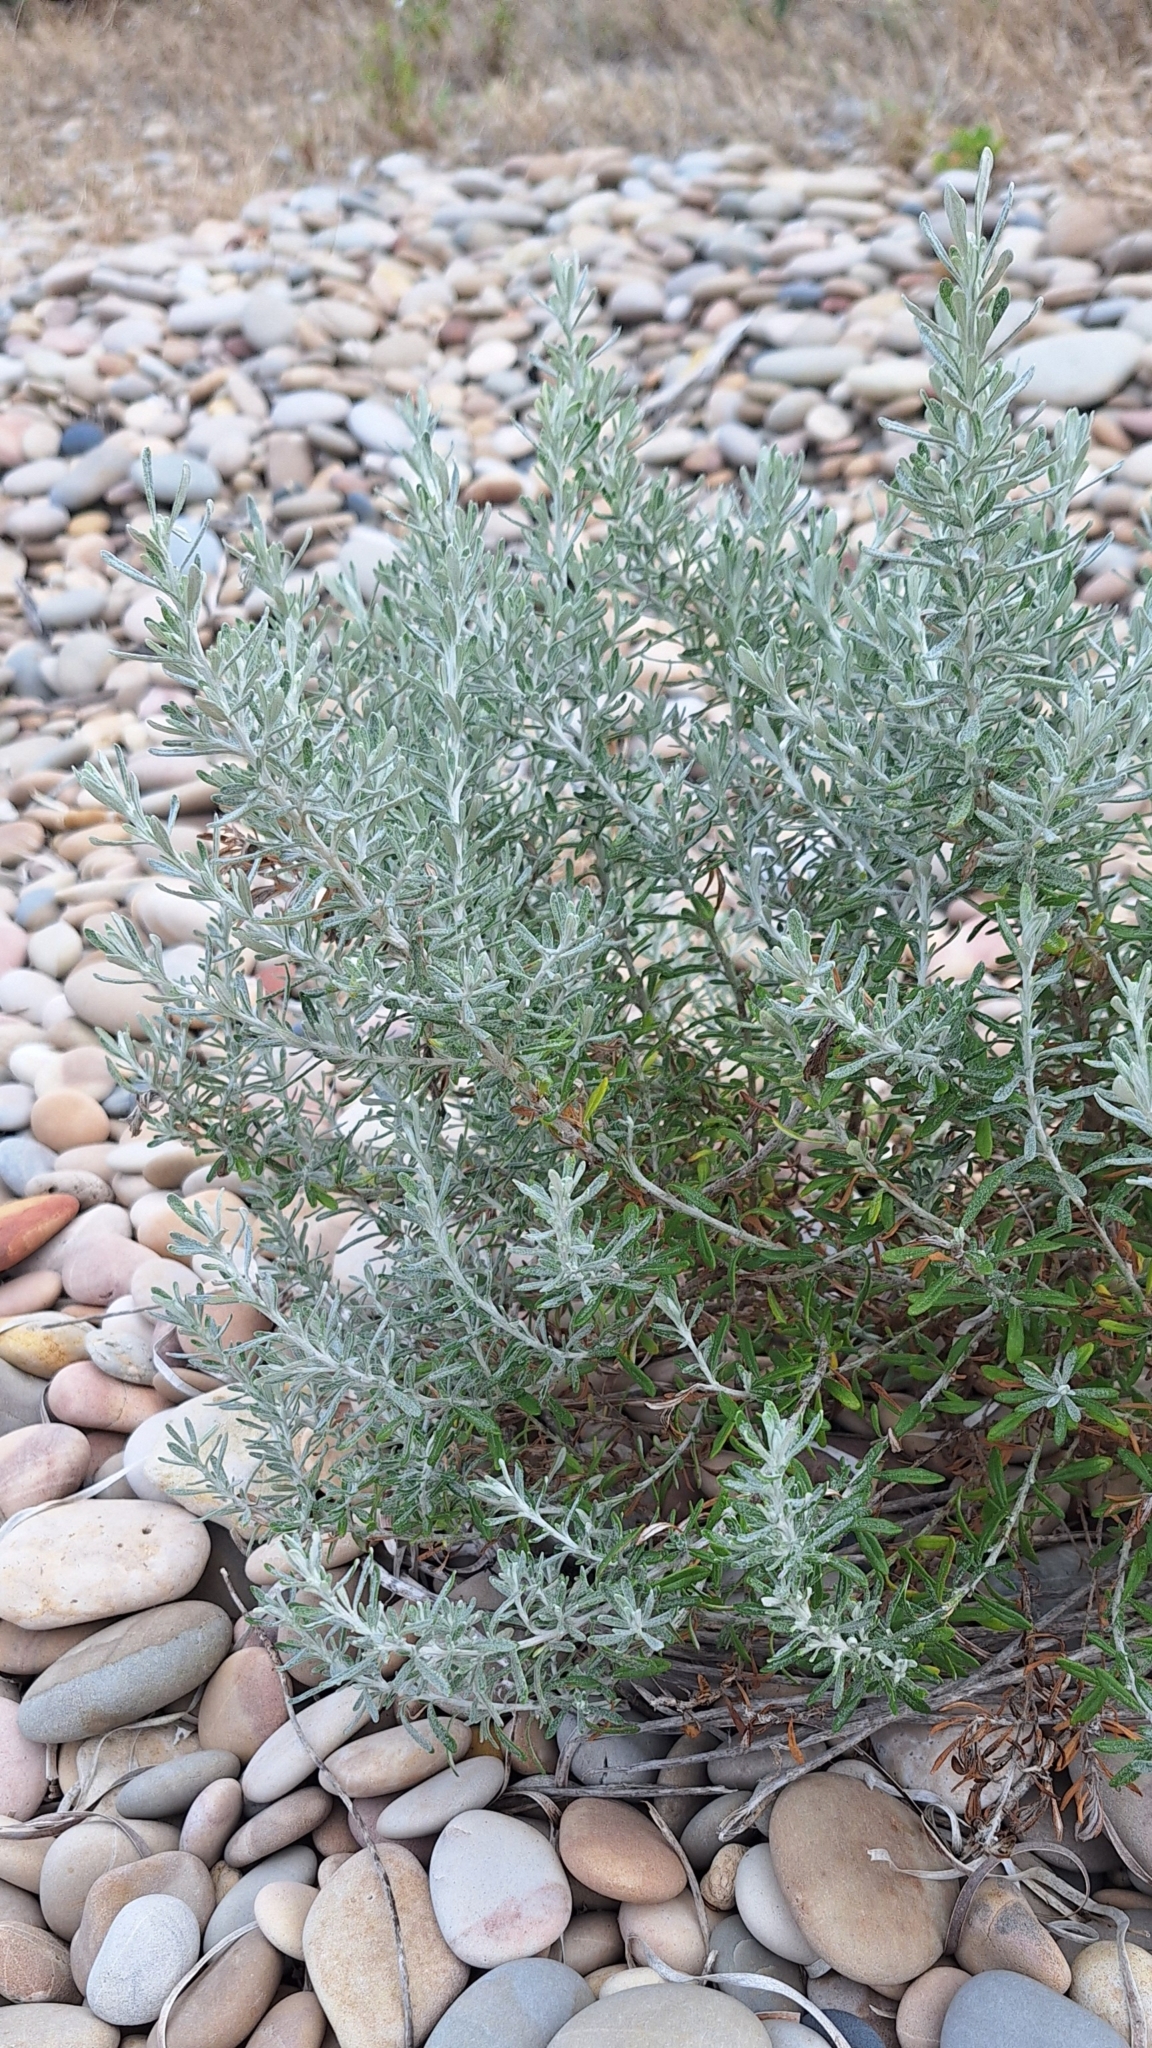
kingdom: Plantae
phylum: Tracheophyta
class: Magnoliopsida
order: Asterales
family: Asteraceae
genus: Olearia
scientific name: Olearia axillaris
